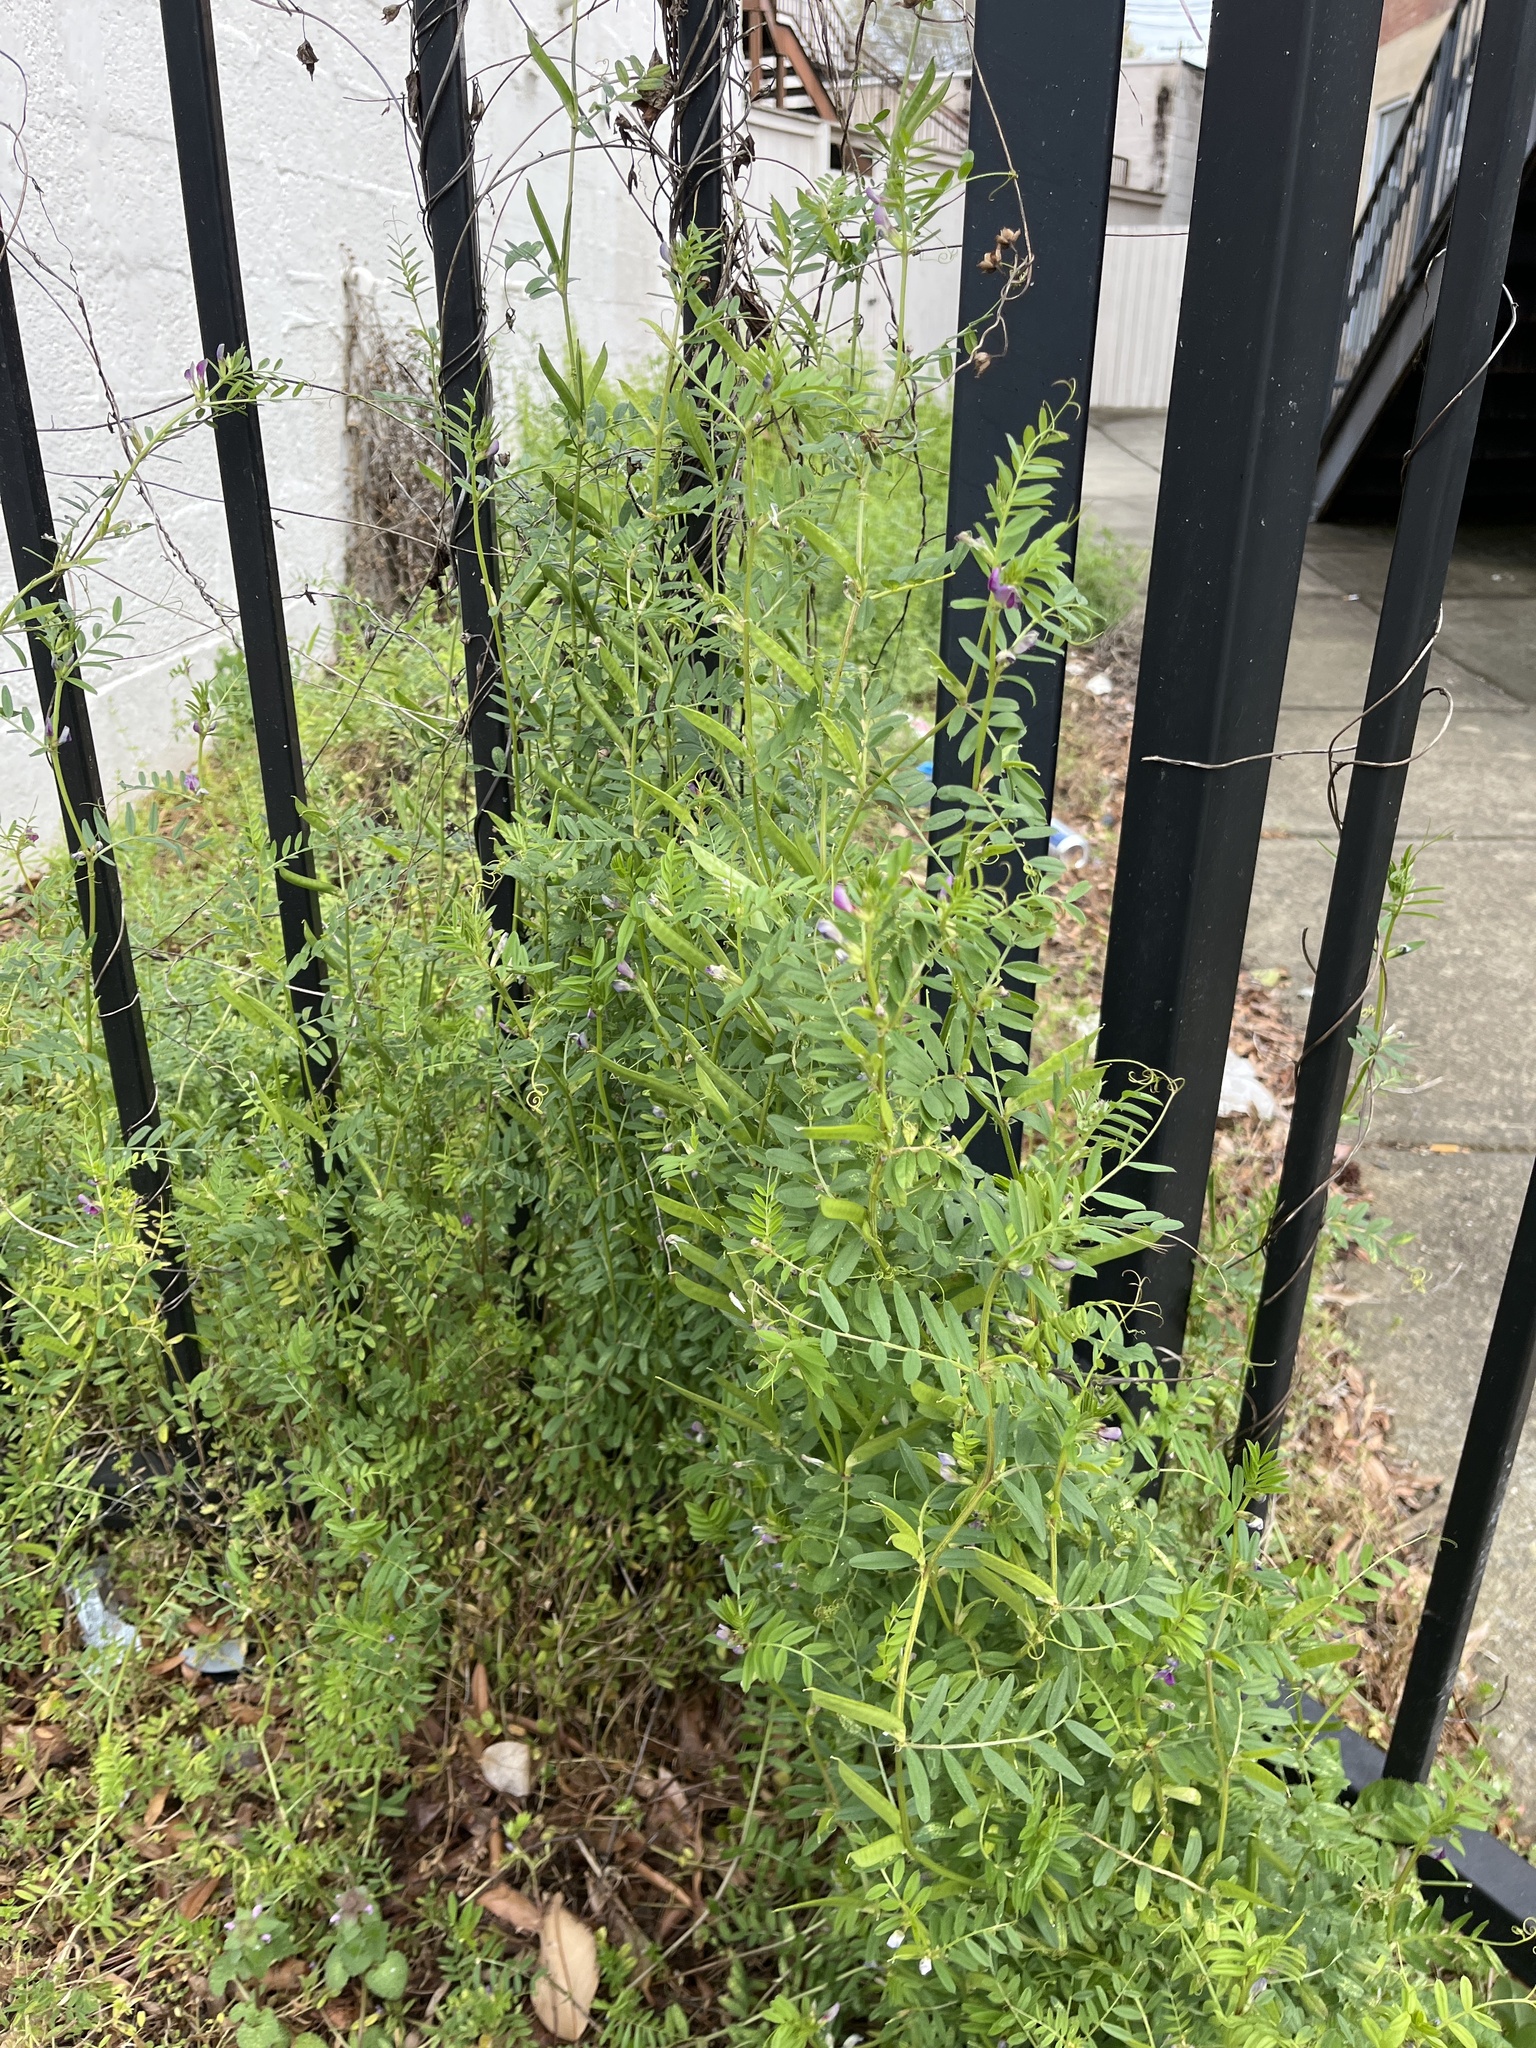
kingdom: Plantae
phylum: Tracheophyta
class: Magnoliopsida
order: Fabales
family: Fabaceae
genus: Vicia
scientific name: Vicia sativa
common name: Garden vetch
